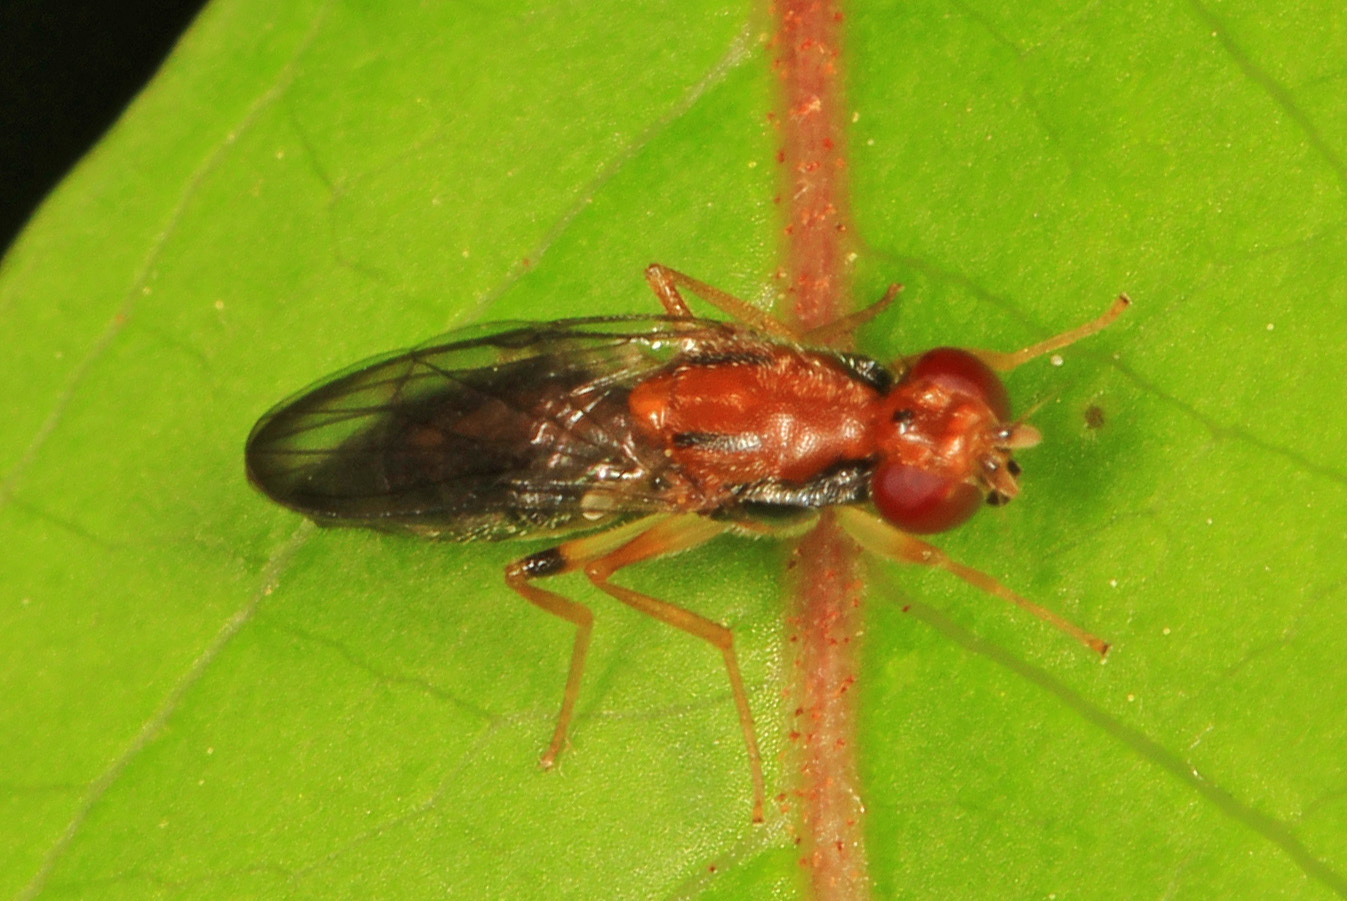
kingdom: Animalia
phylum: Arthropoda
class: Insecta
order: Diptera
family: Psilidae
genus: Chyliza
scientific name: Chyliza apicalis
